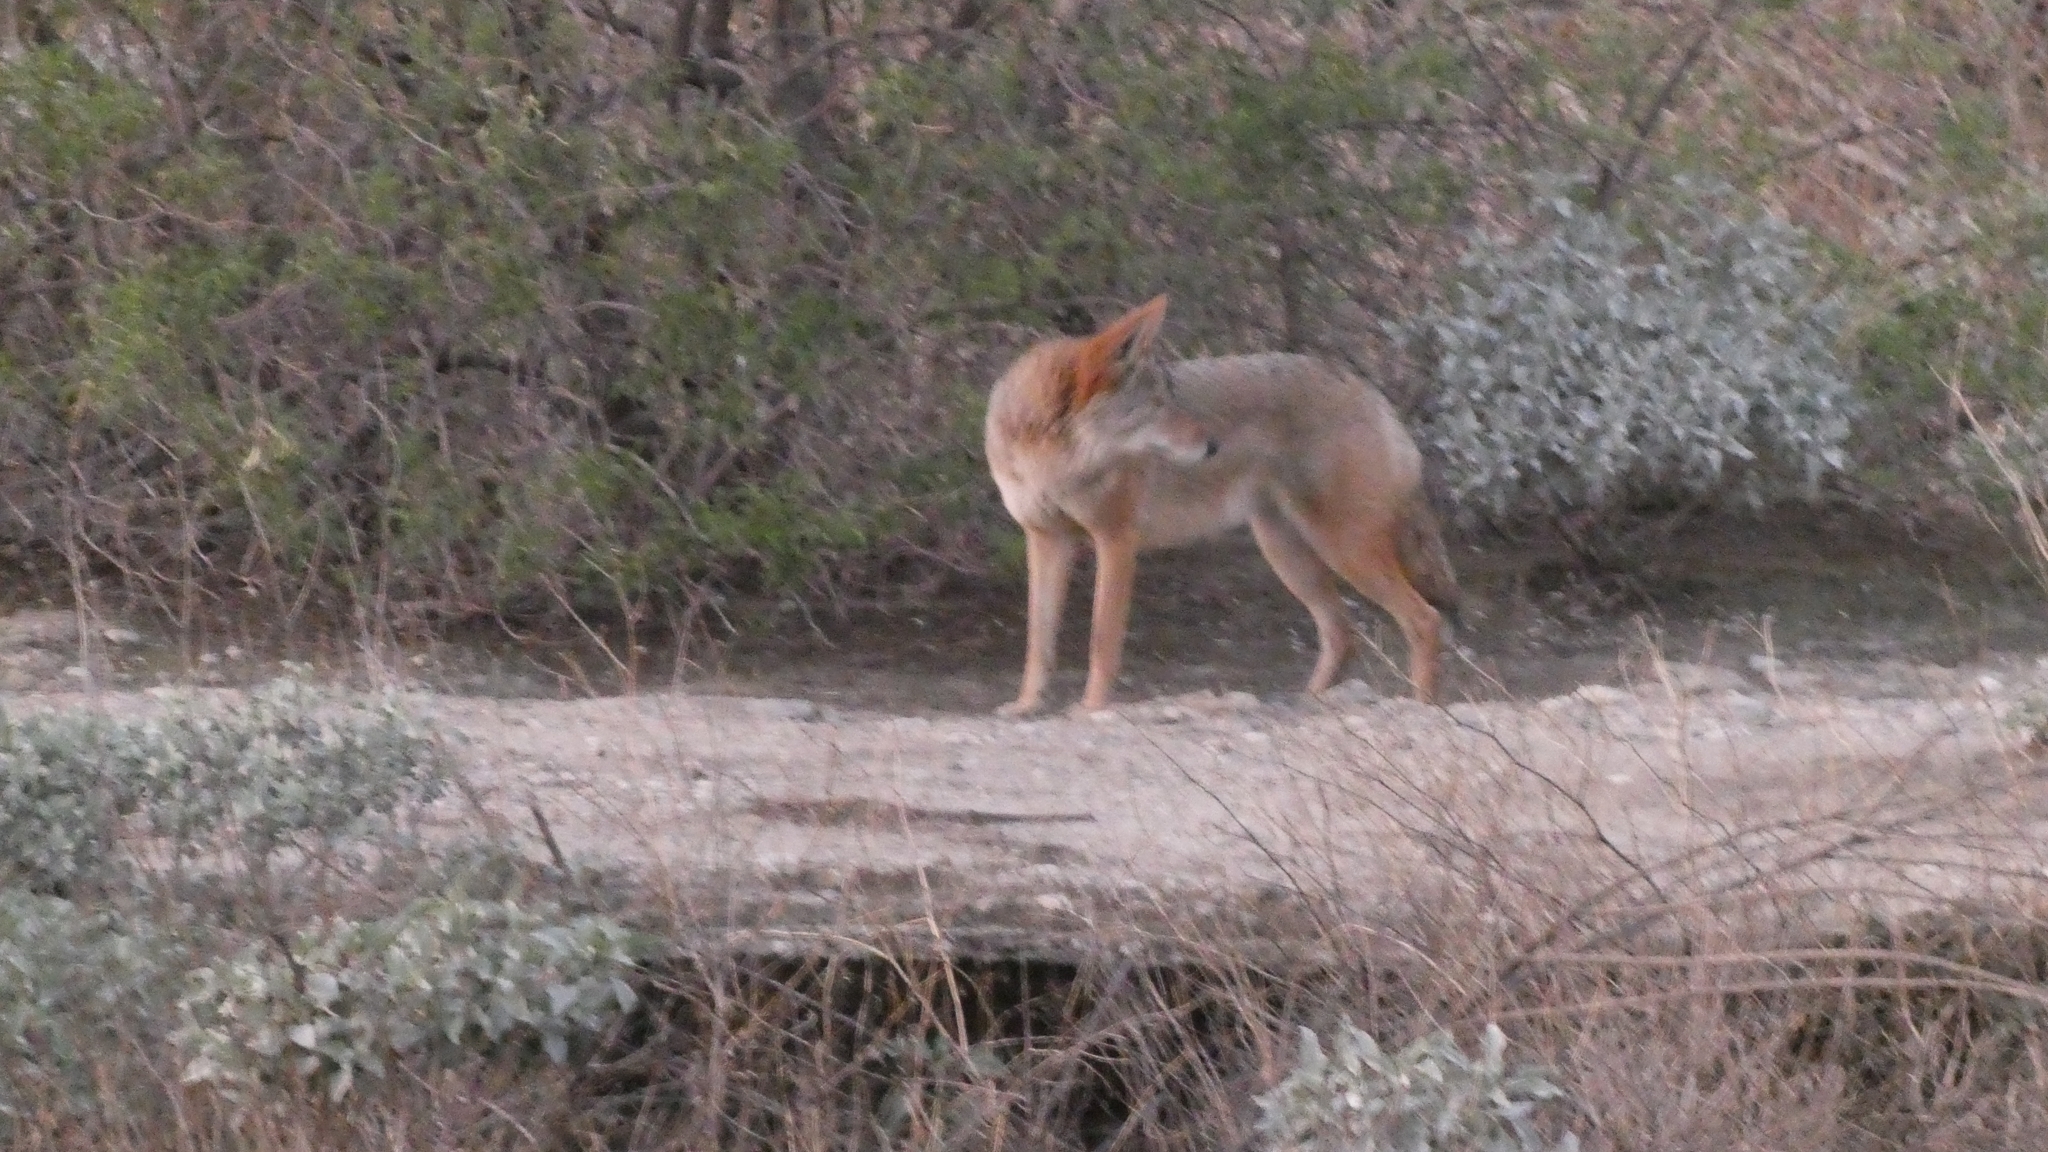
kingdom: Animalia
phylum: Chordata
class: Mammalia
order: Carnivora
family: Canidae
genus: Canis
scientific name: Canis latrans
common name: Coyote
